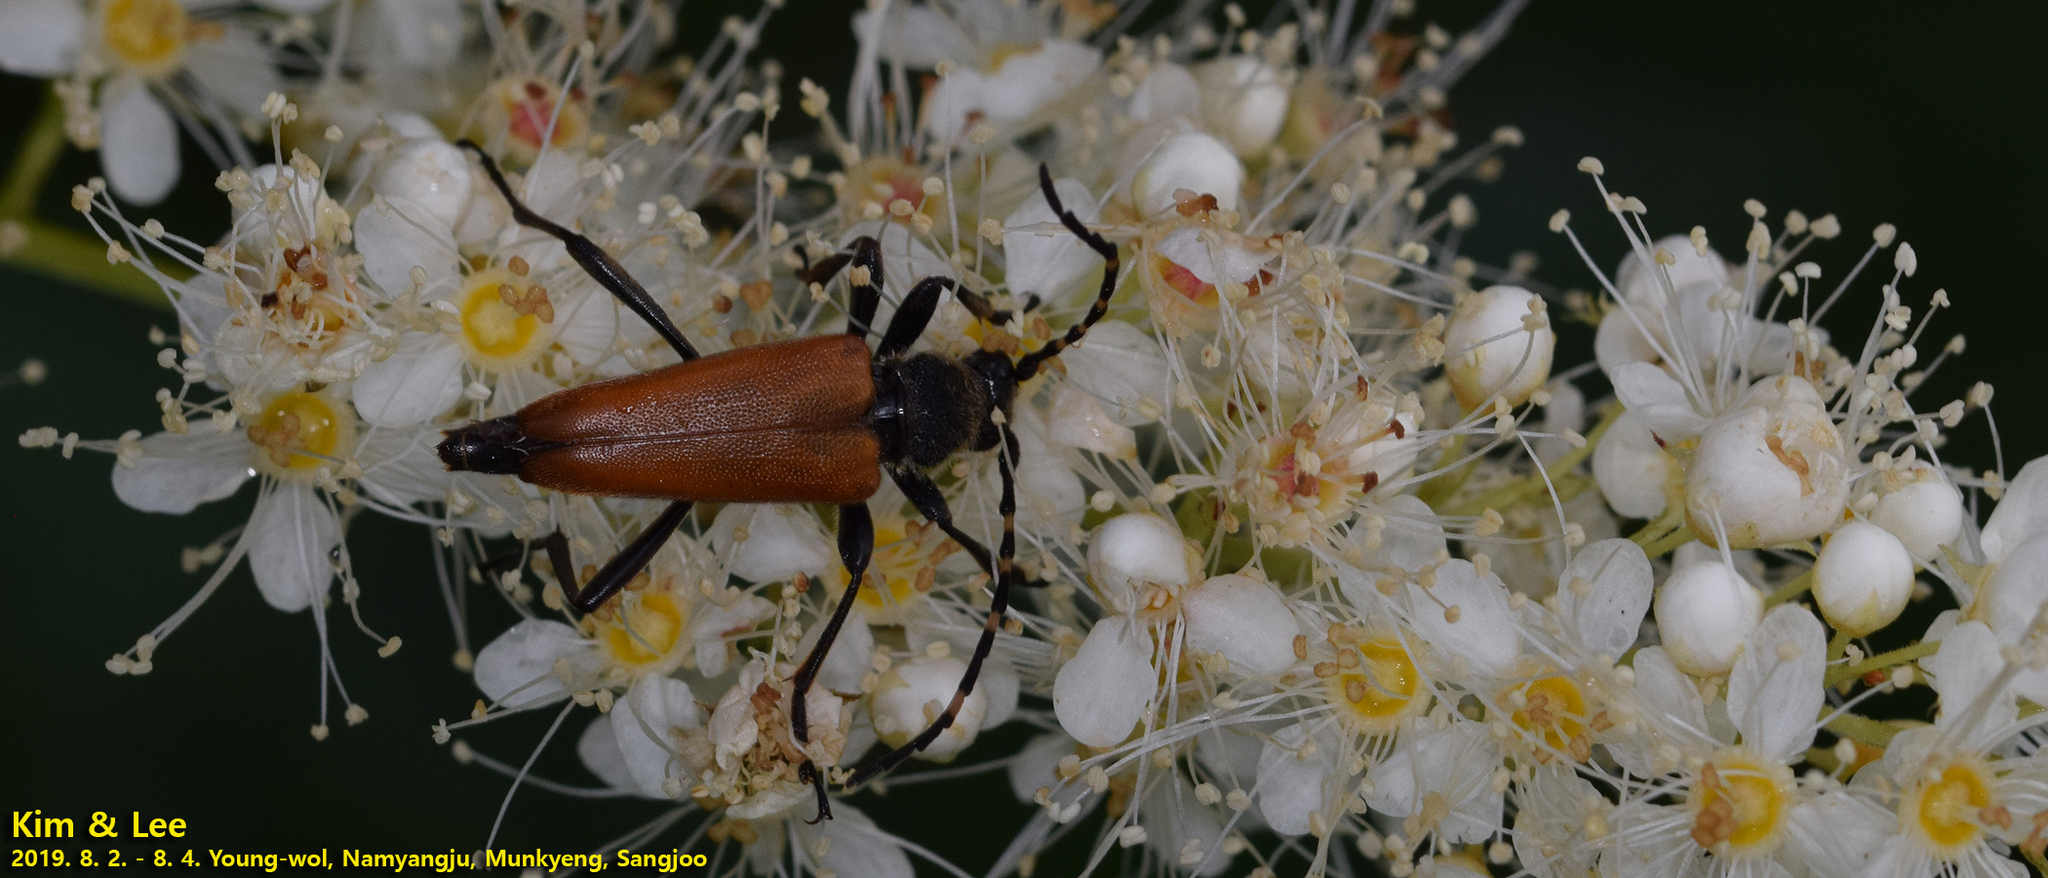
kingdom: Animalia
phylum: Arthropoda
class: Insecta
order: Coleoptera
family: Cerambycidae
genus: Stictoleptura
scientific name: Stictoleptura variicornis
